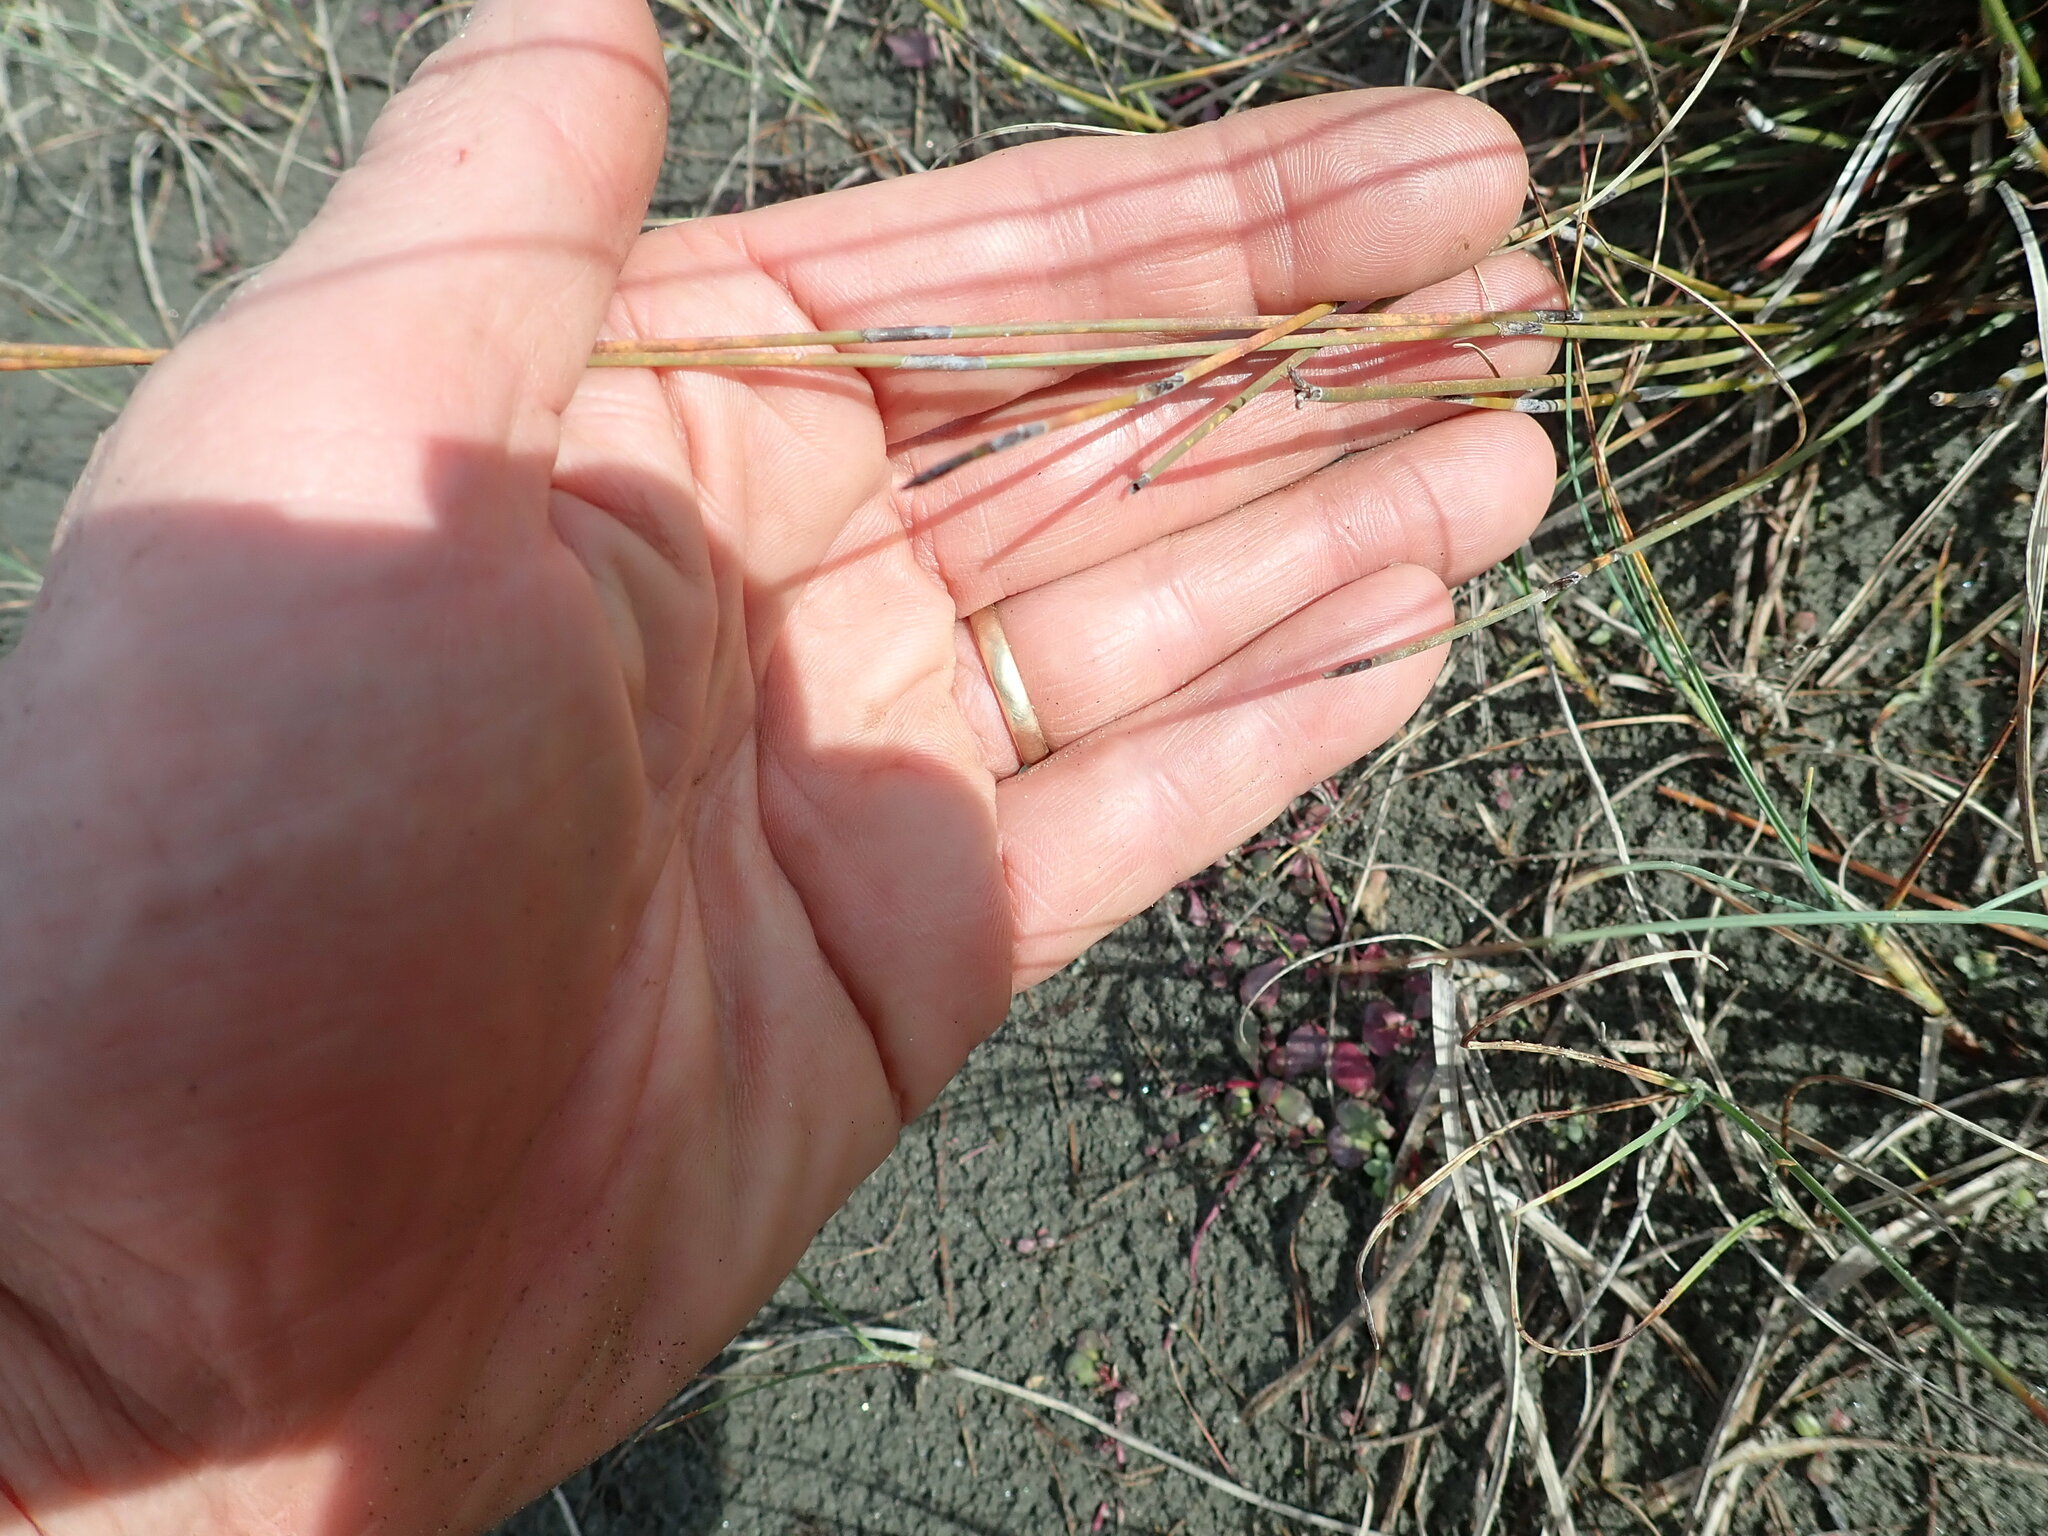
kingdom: Plantae
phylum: Tracheophyta
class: Liliopsida
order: Poales
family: Restionaceae
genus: Apodasmia
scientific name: Apodasmia similis
